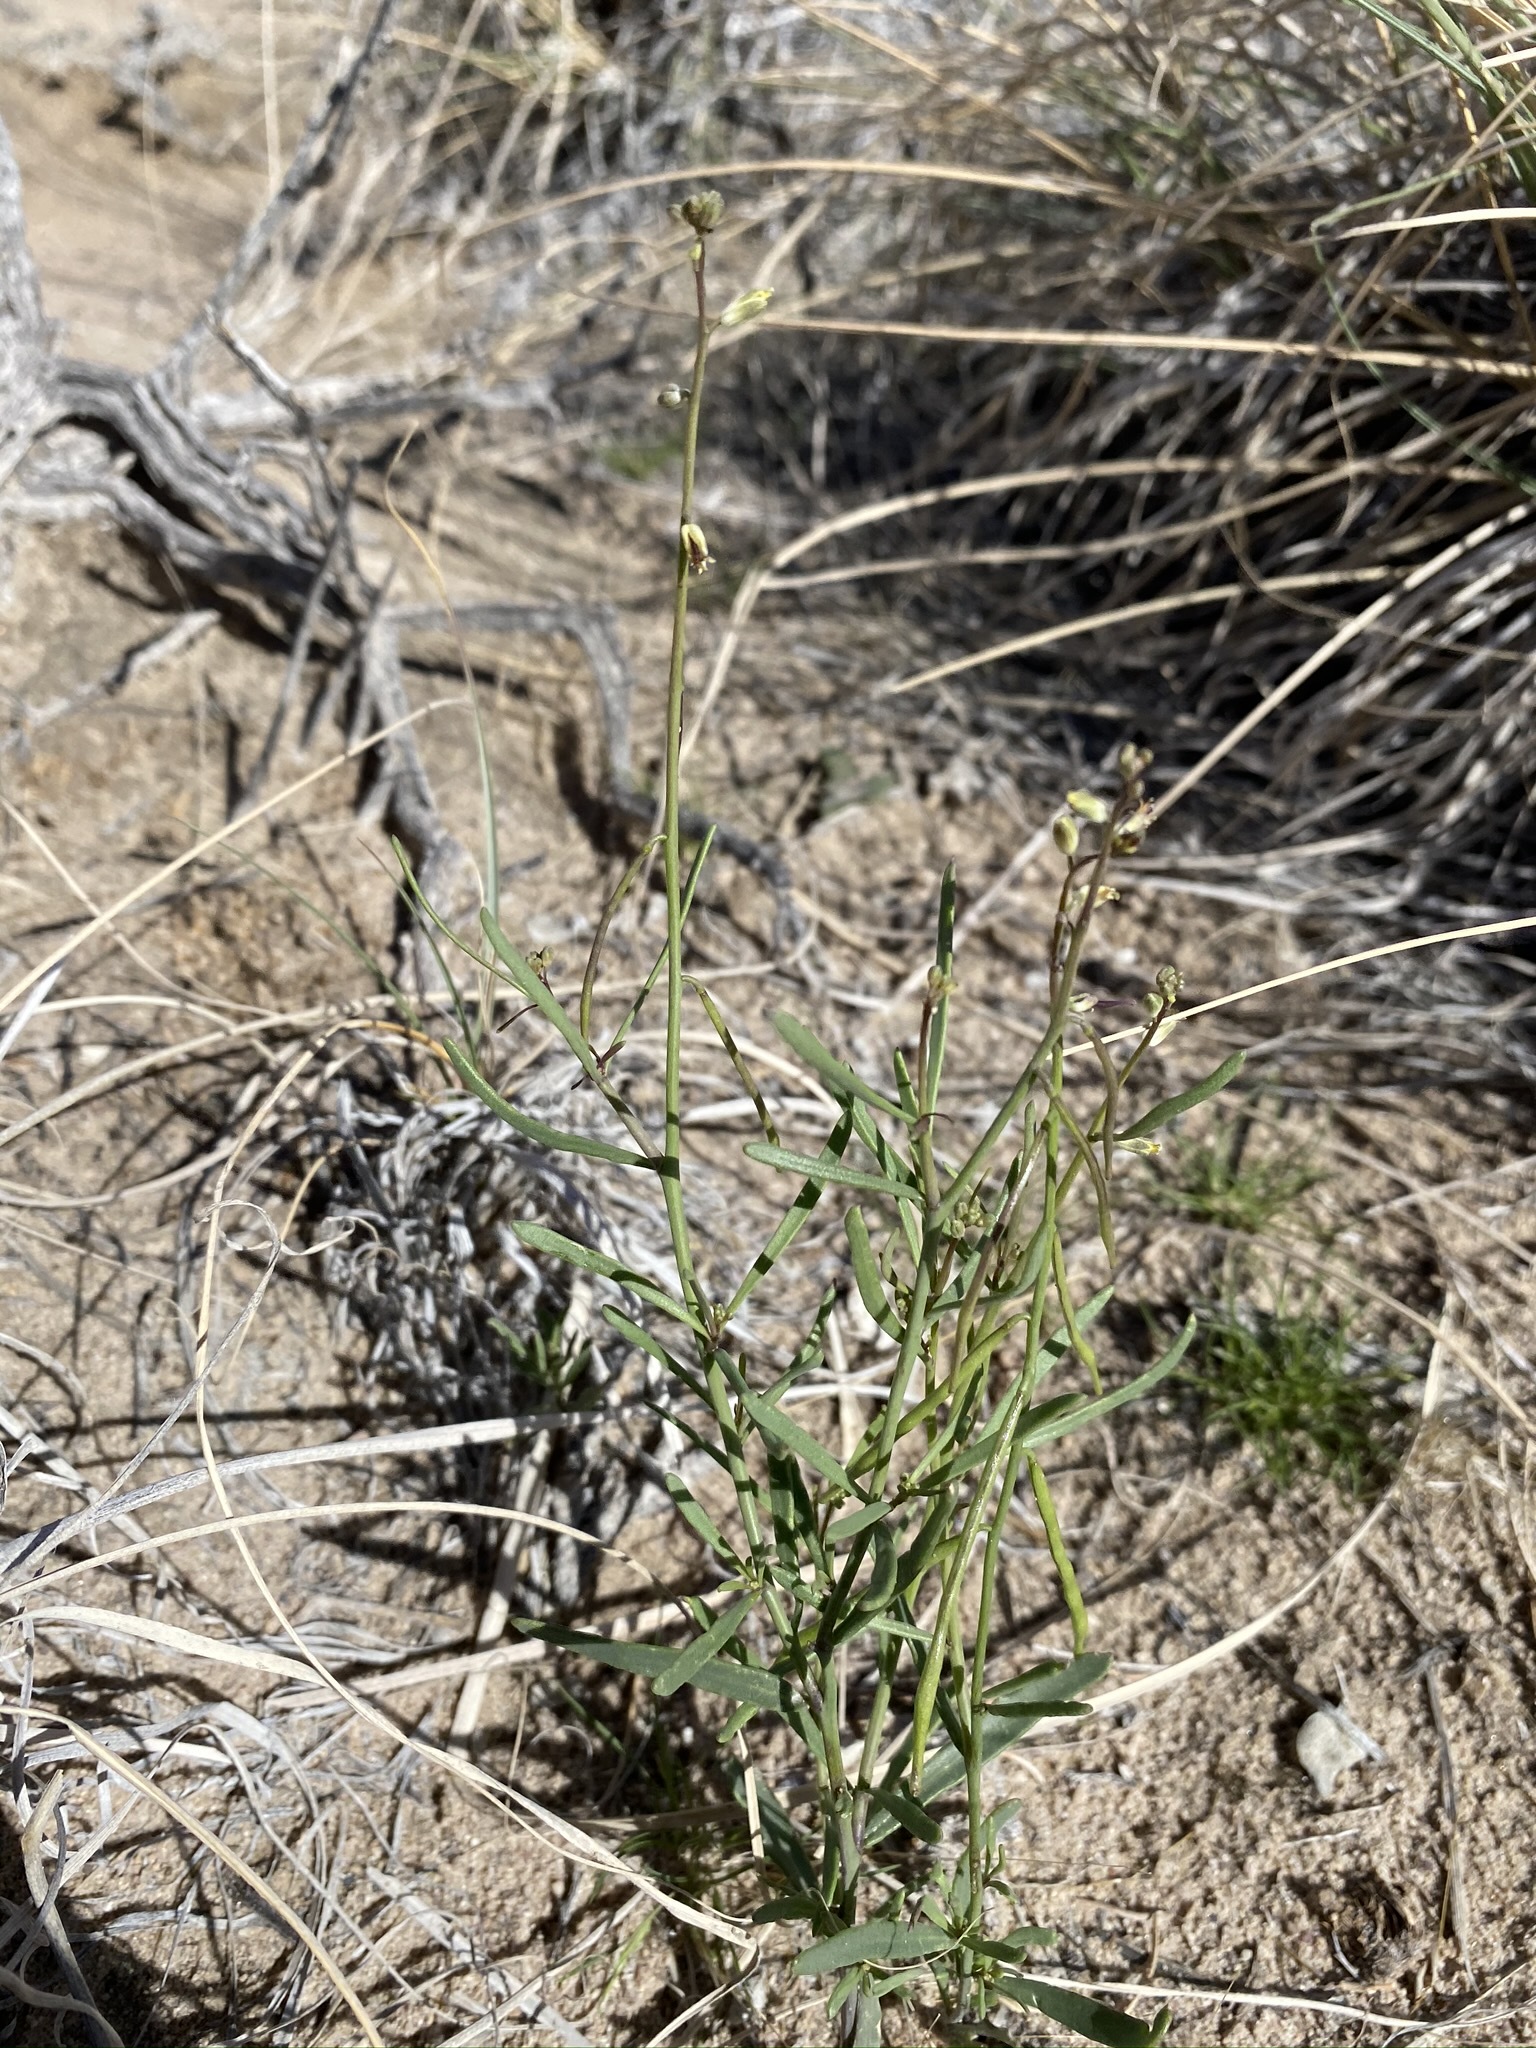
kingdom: Plantae
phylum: Tracheophyta
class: Magnoliopsida
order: Brassicales
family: Brassicaceae
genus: Streptanthus
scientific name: Streptanthus longirostris
